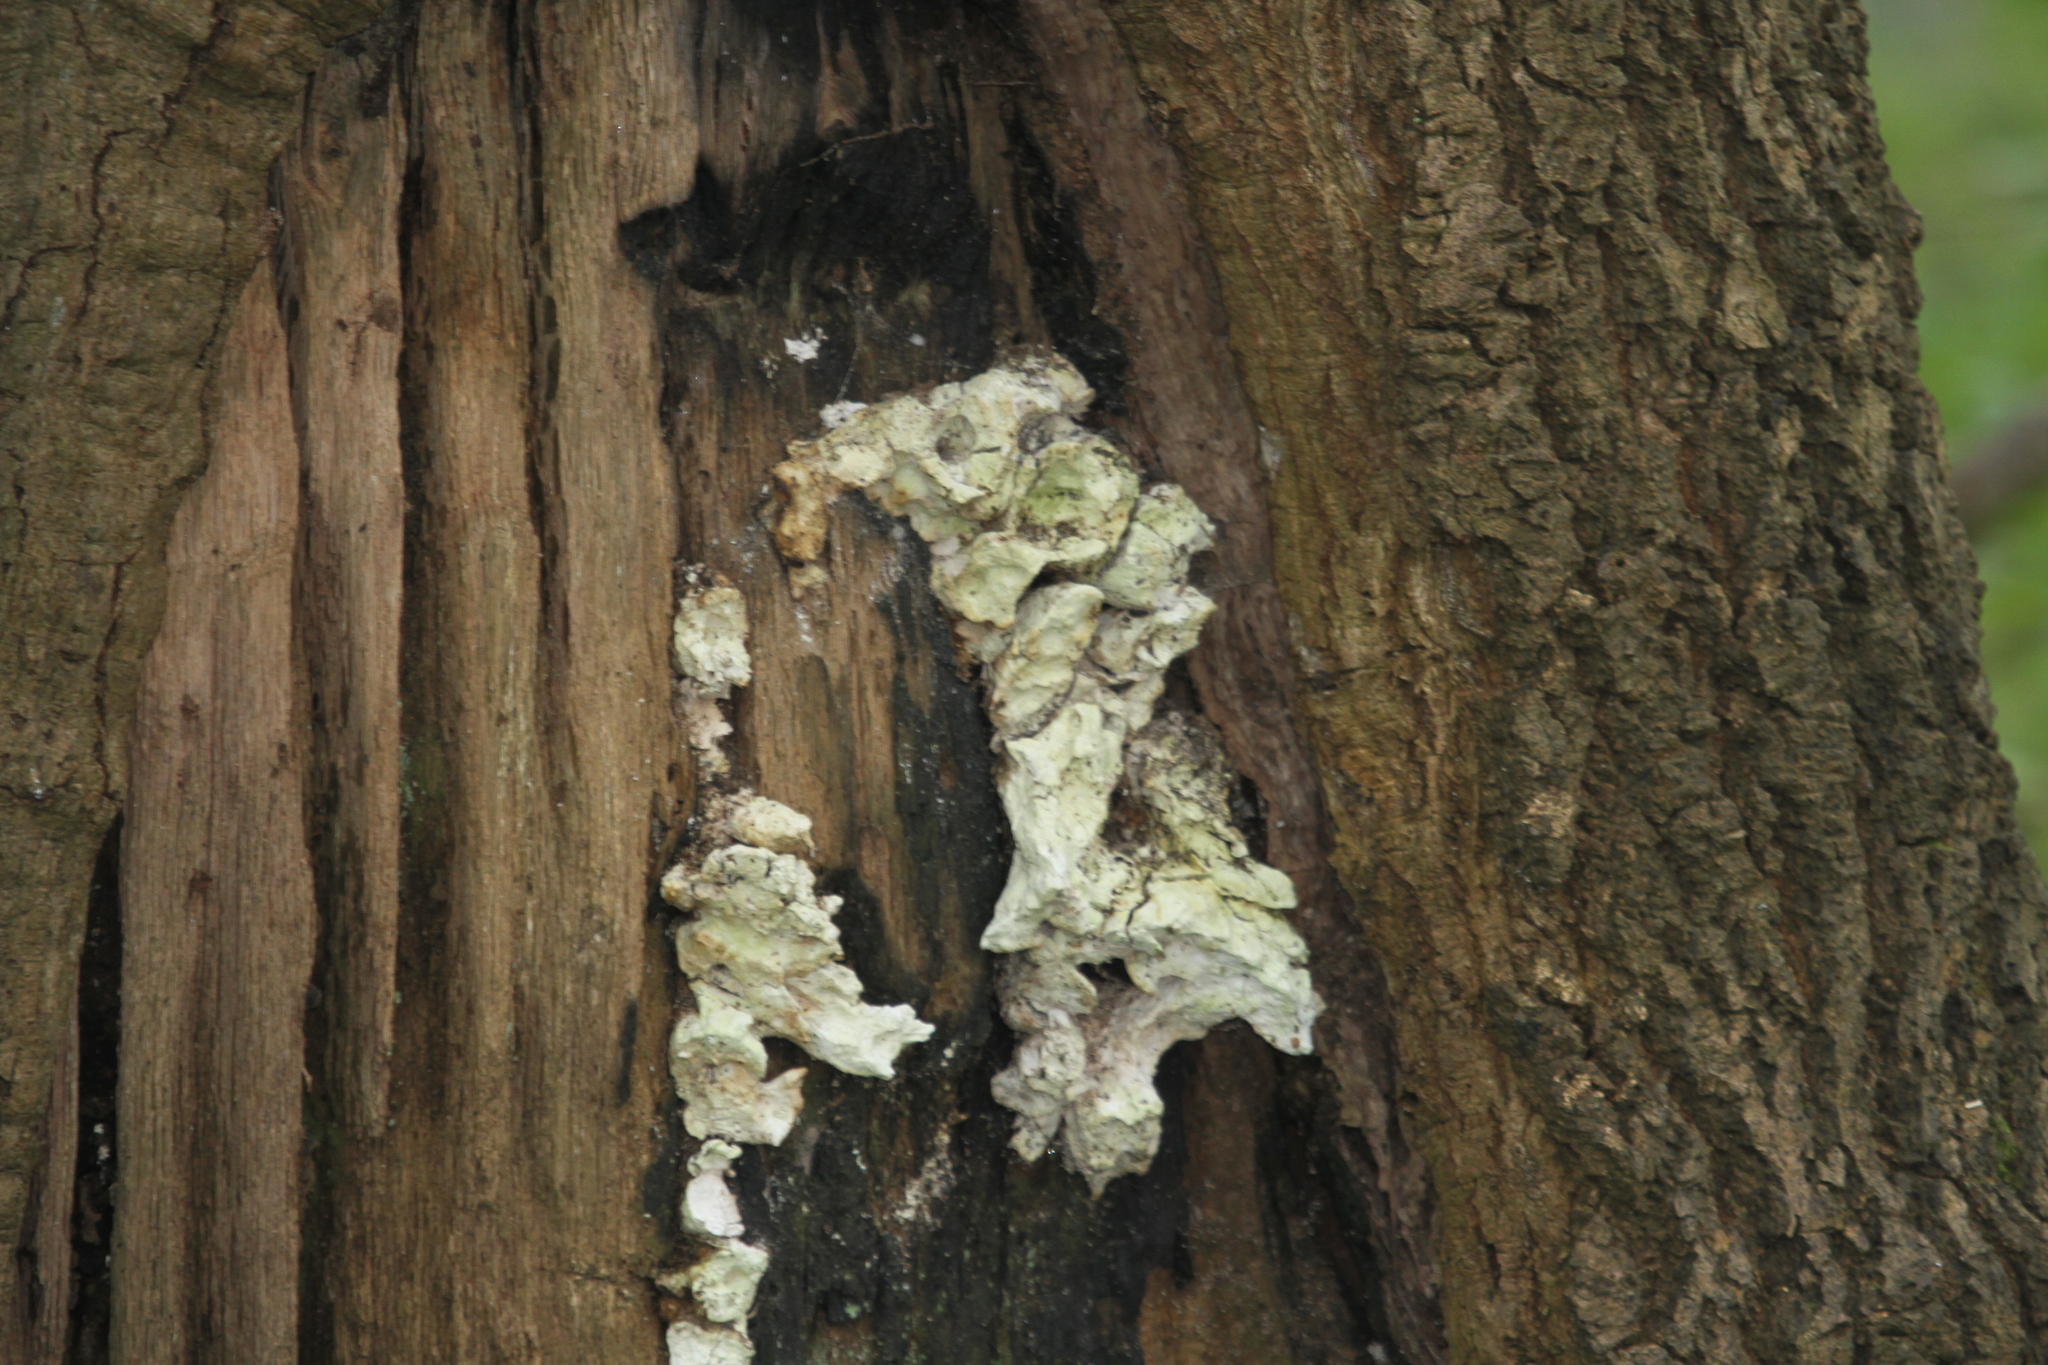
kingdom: Fungi
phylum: Basidiomycota
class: Agaricomycetes
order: Polyporales
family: Laetiporaceae
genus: Laetiporus
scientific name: Laetiporus sulphureus
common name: Chicken of the woods
